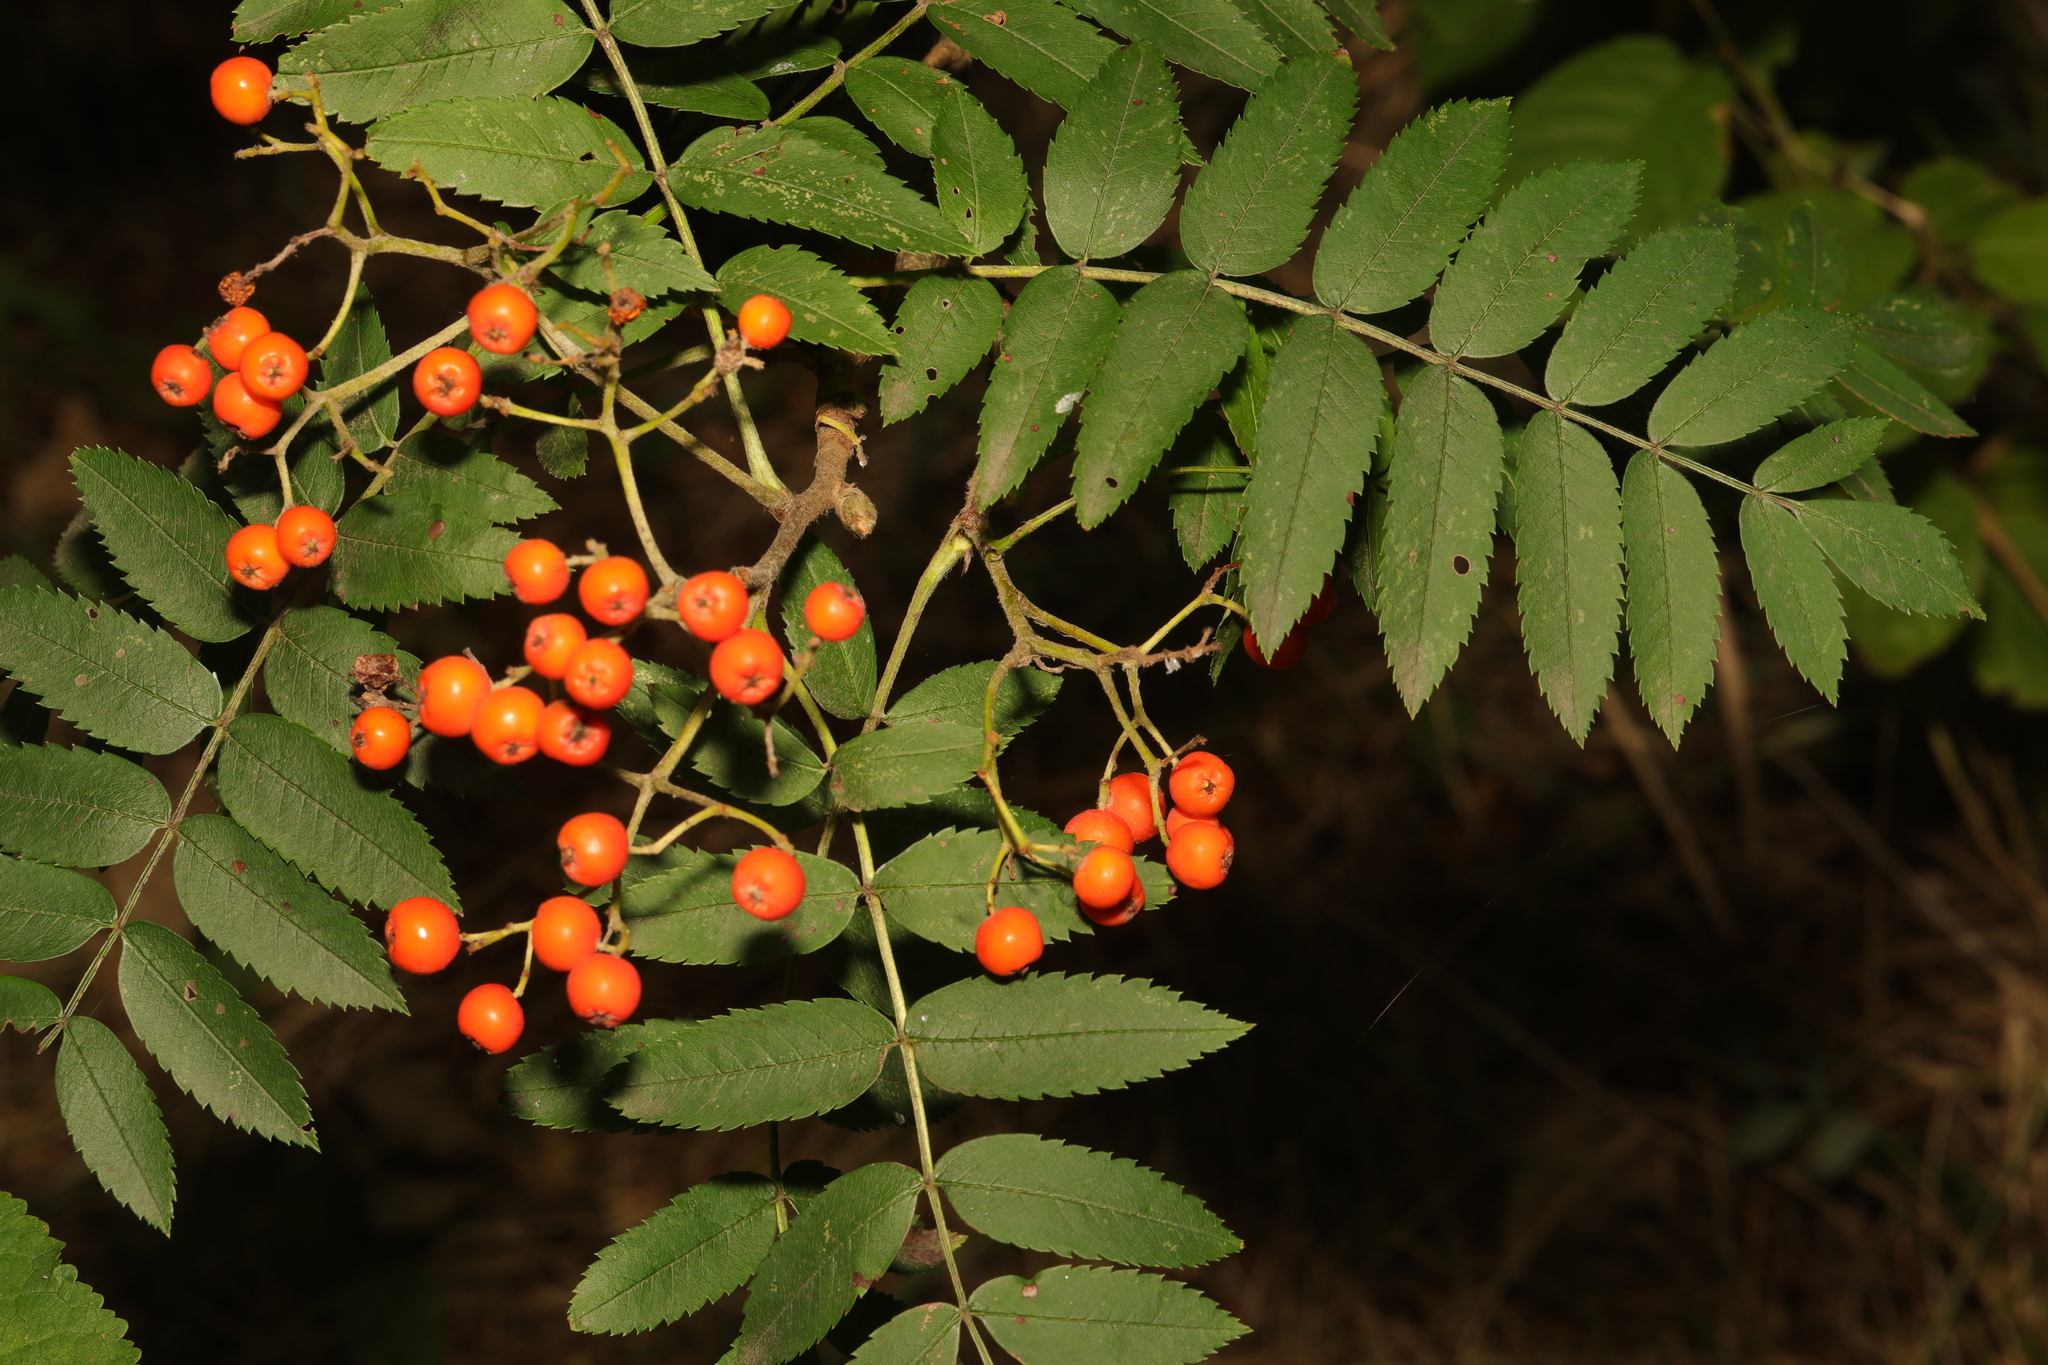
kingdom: Plantae
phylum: Tracheophyta
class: Magnoliopsida
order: Rosales
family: Rosaceae
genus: Sorbus
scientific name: Sorbus aucuparia
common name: Rowan
